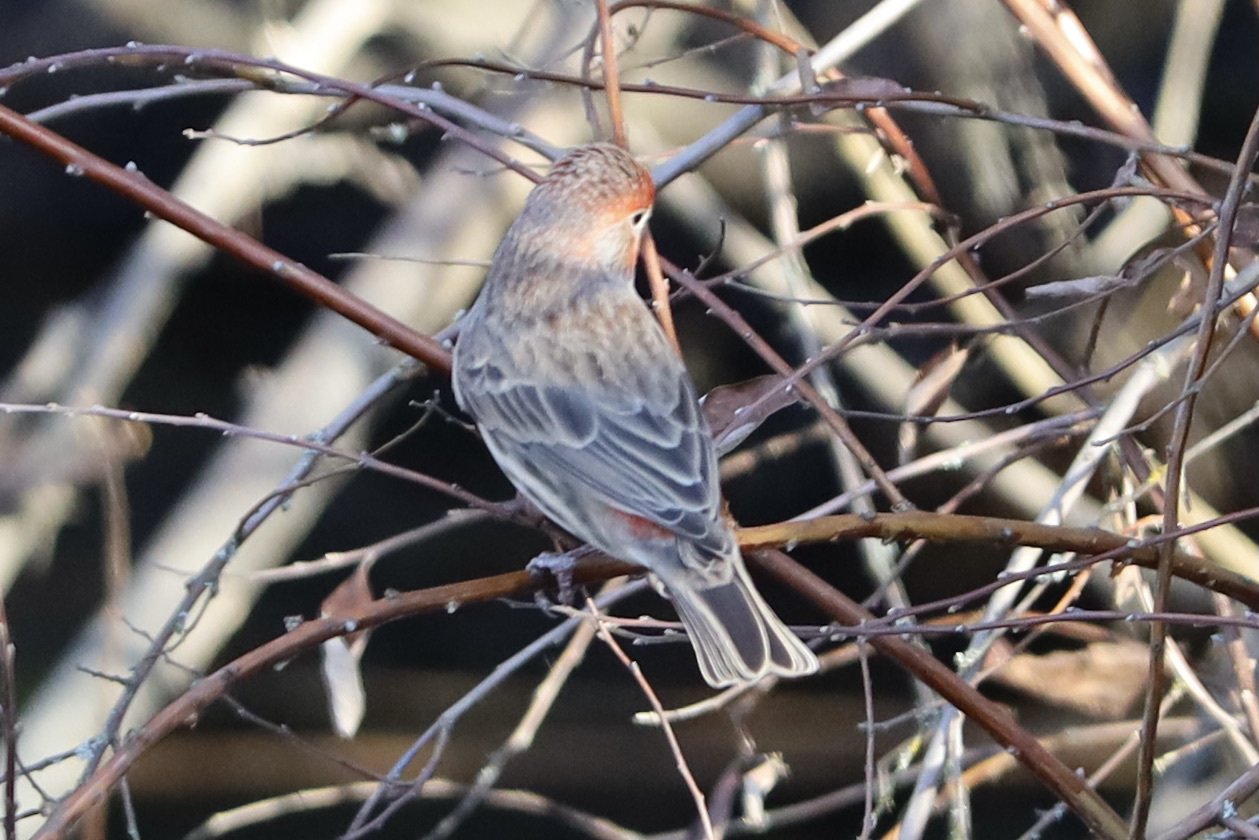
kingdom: Animalia
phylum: Chordata
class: Aves
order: Passeriformes
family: Fringillidae
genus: Haemorhous
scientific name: Haemorhous mexicanus
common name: House finch
